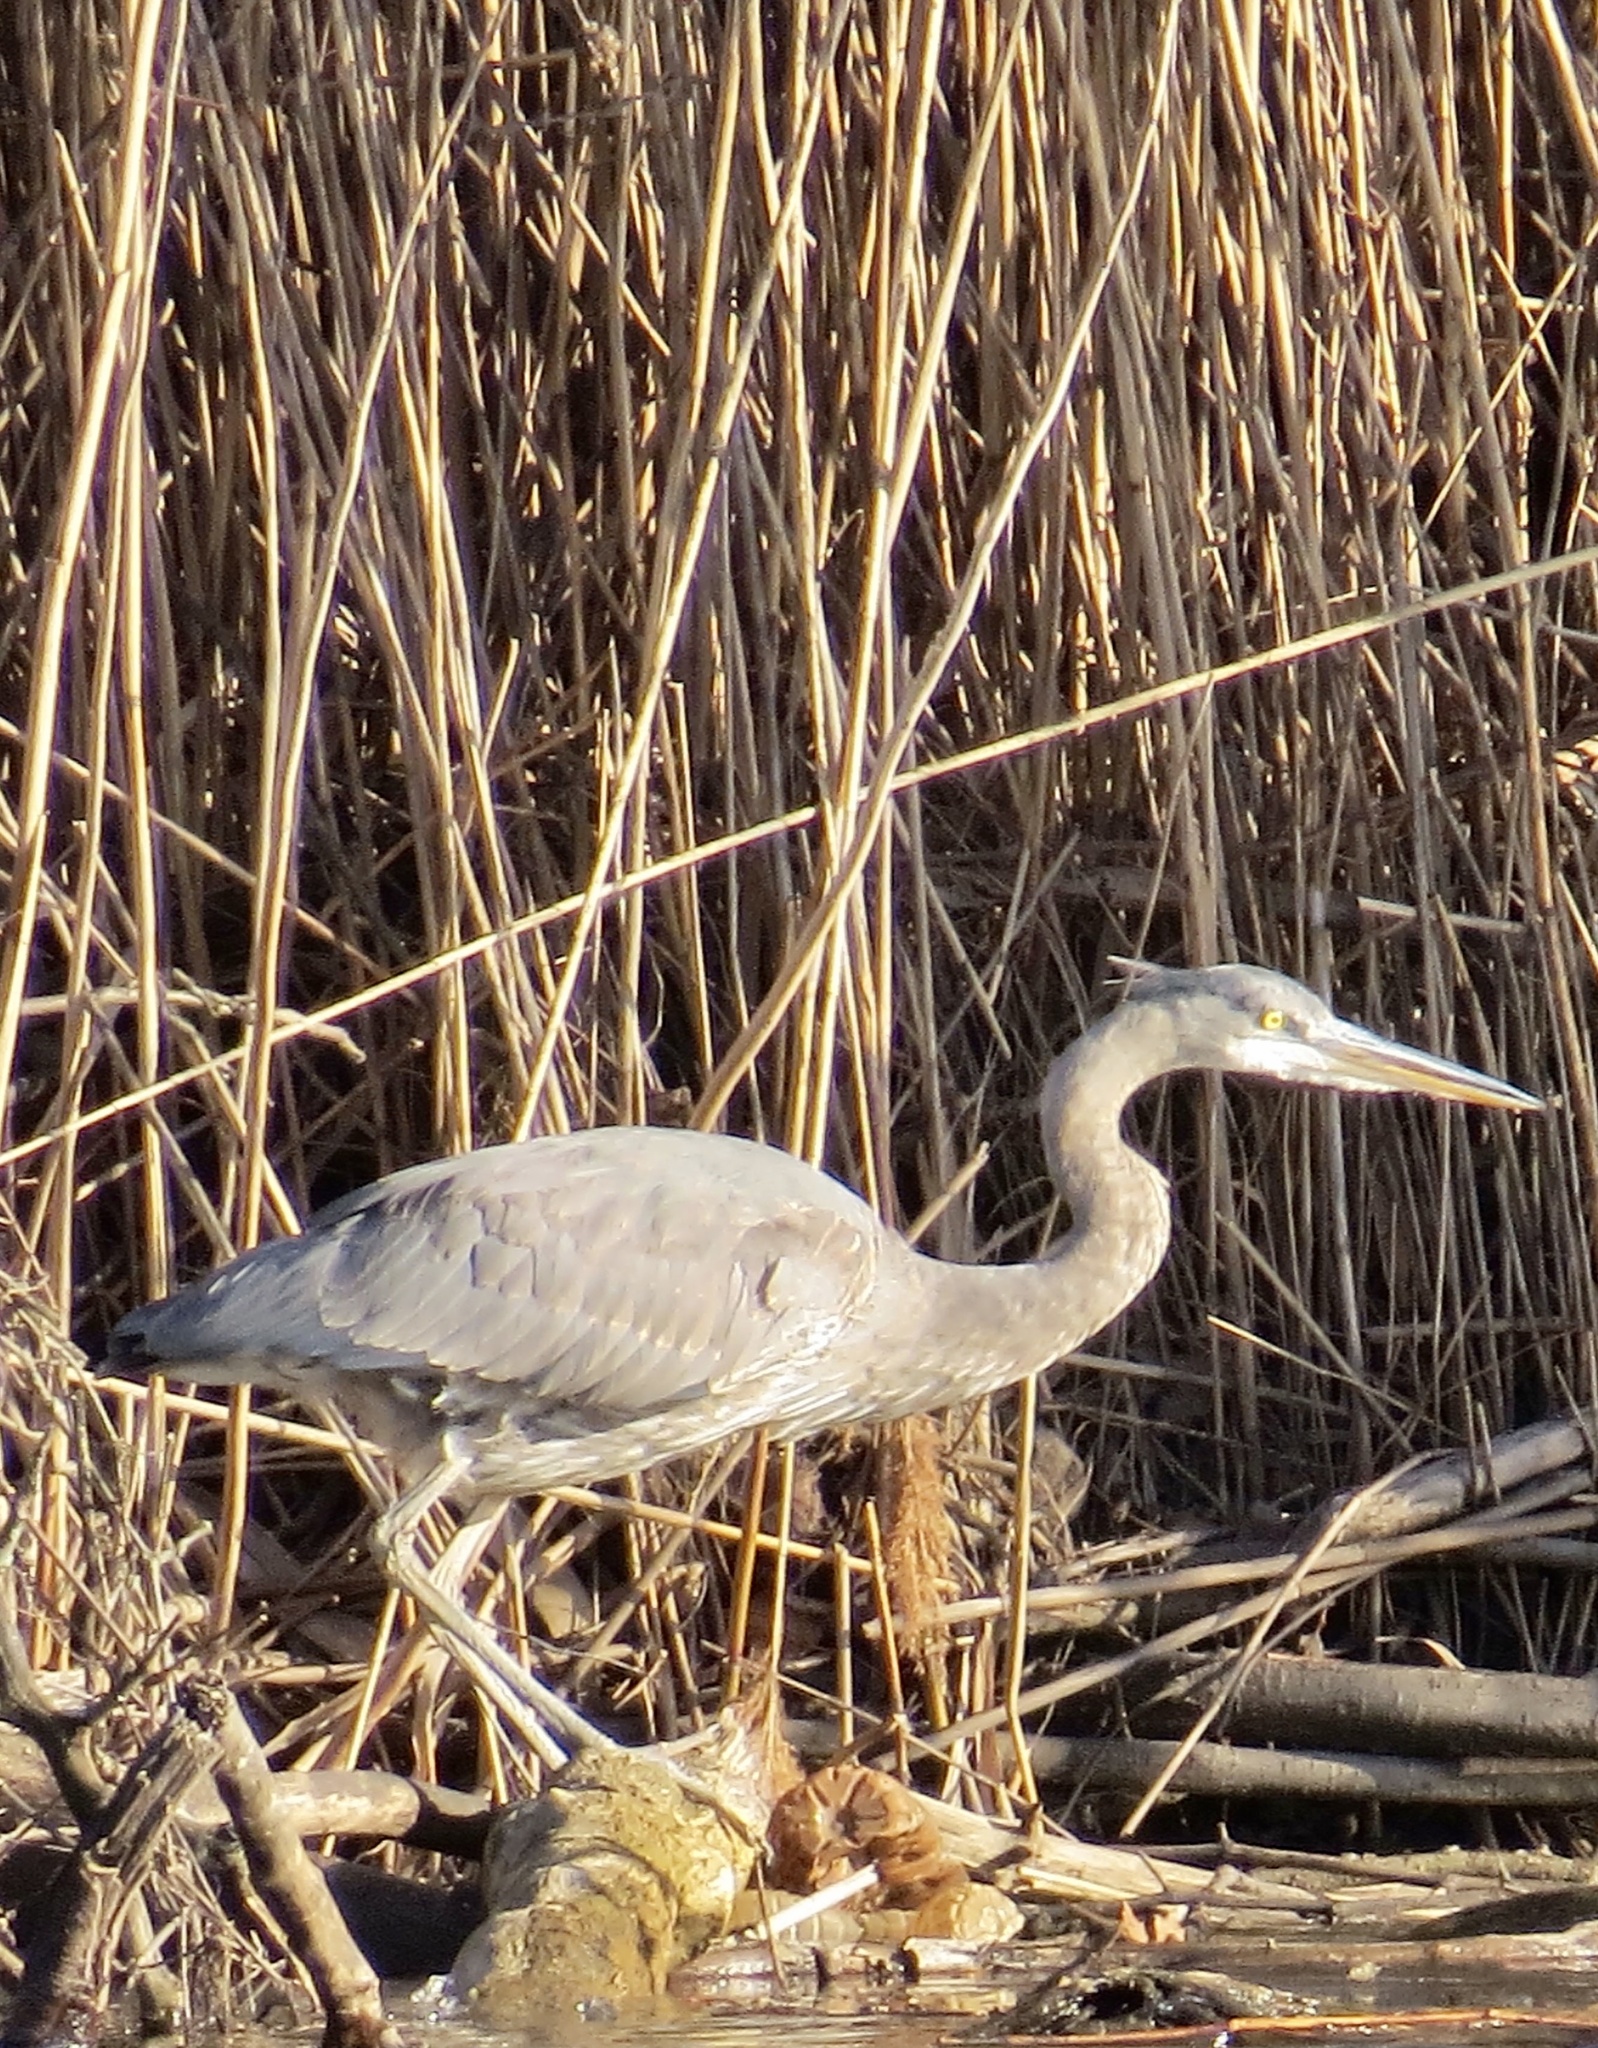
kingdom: Animalia
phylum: Chordata
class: Aves
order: Pelecaniformes
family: Ardeidae
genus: Ardea
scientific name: Ardea herodias
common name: Great blue heron
